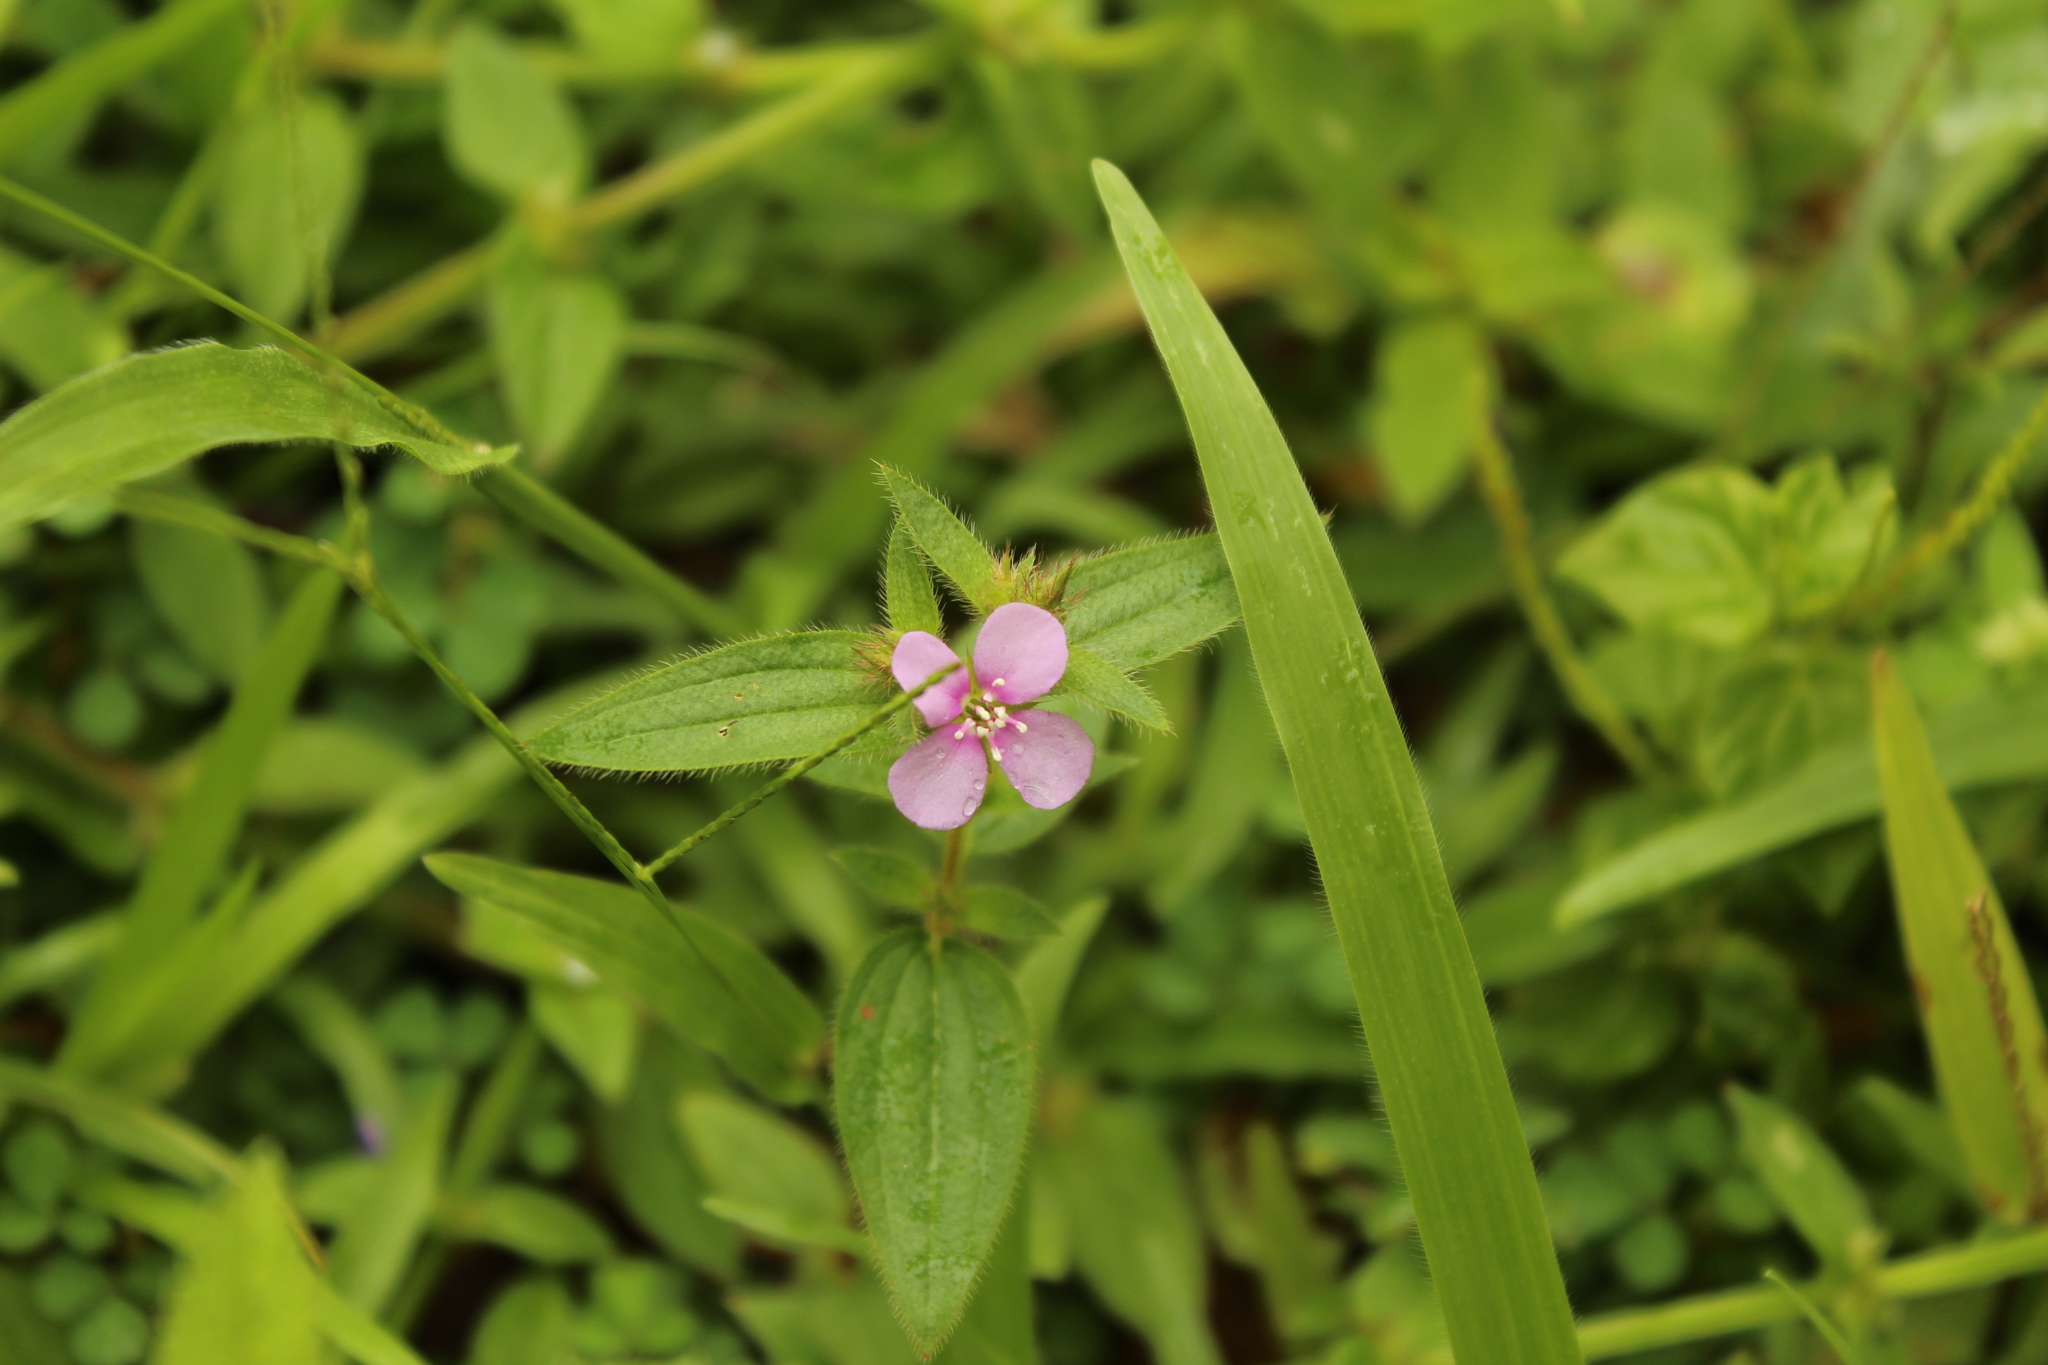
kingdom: Plantae
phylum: Tracheophyta
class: Magnoliopsida
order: Myrtales
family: Melastomataceae
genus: Pterolepis
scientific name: Pterolepis trichotoma
